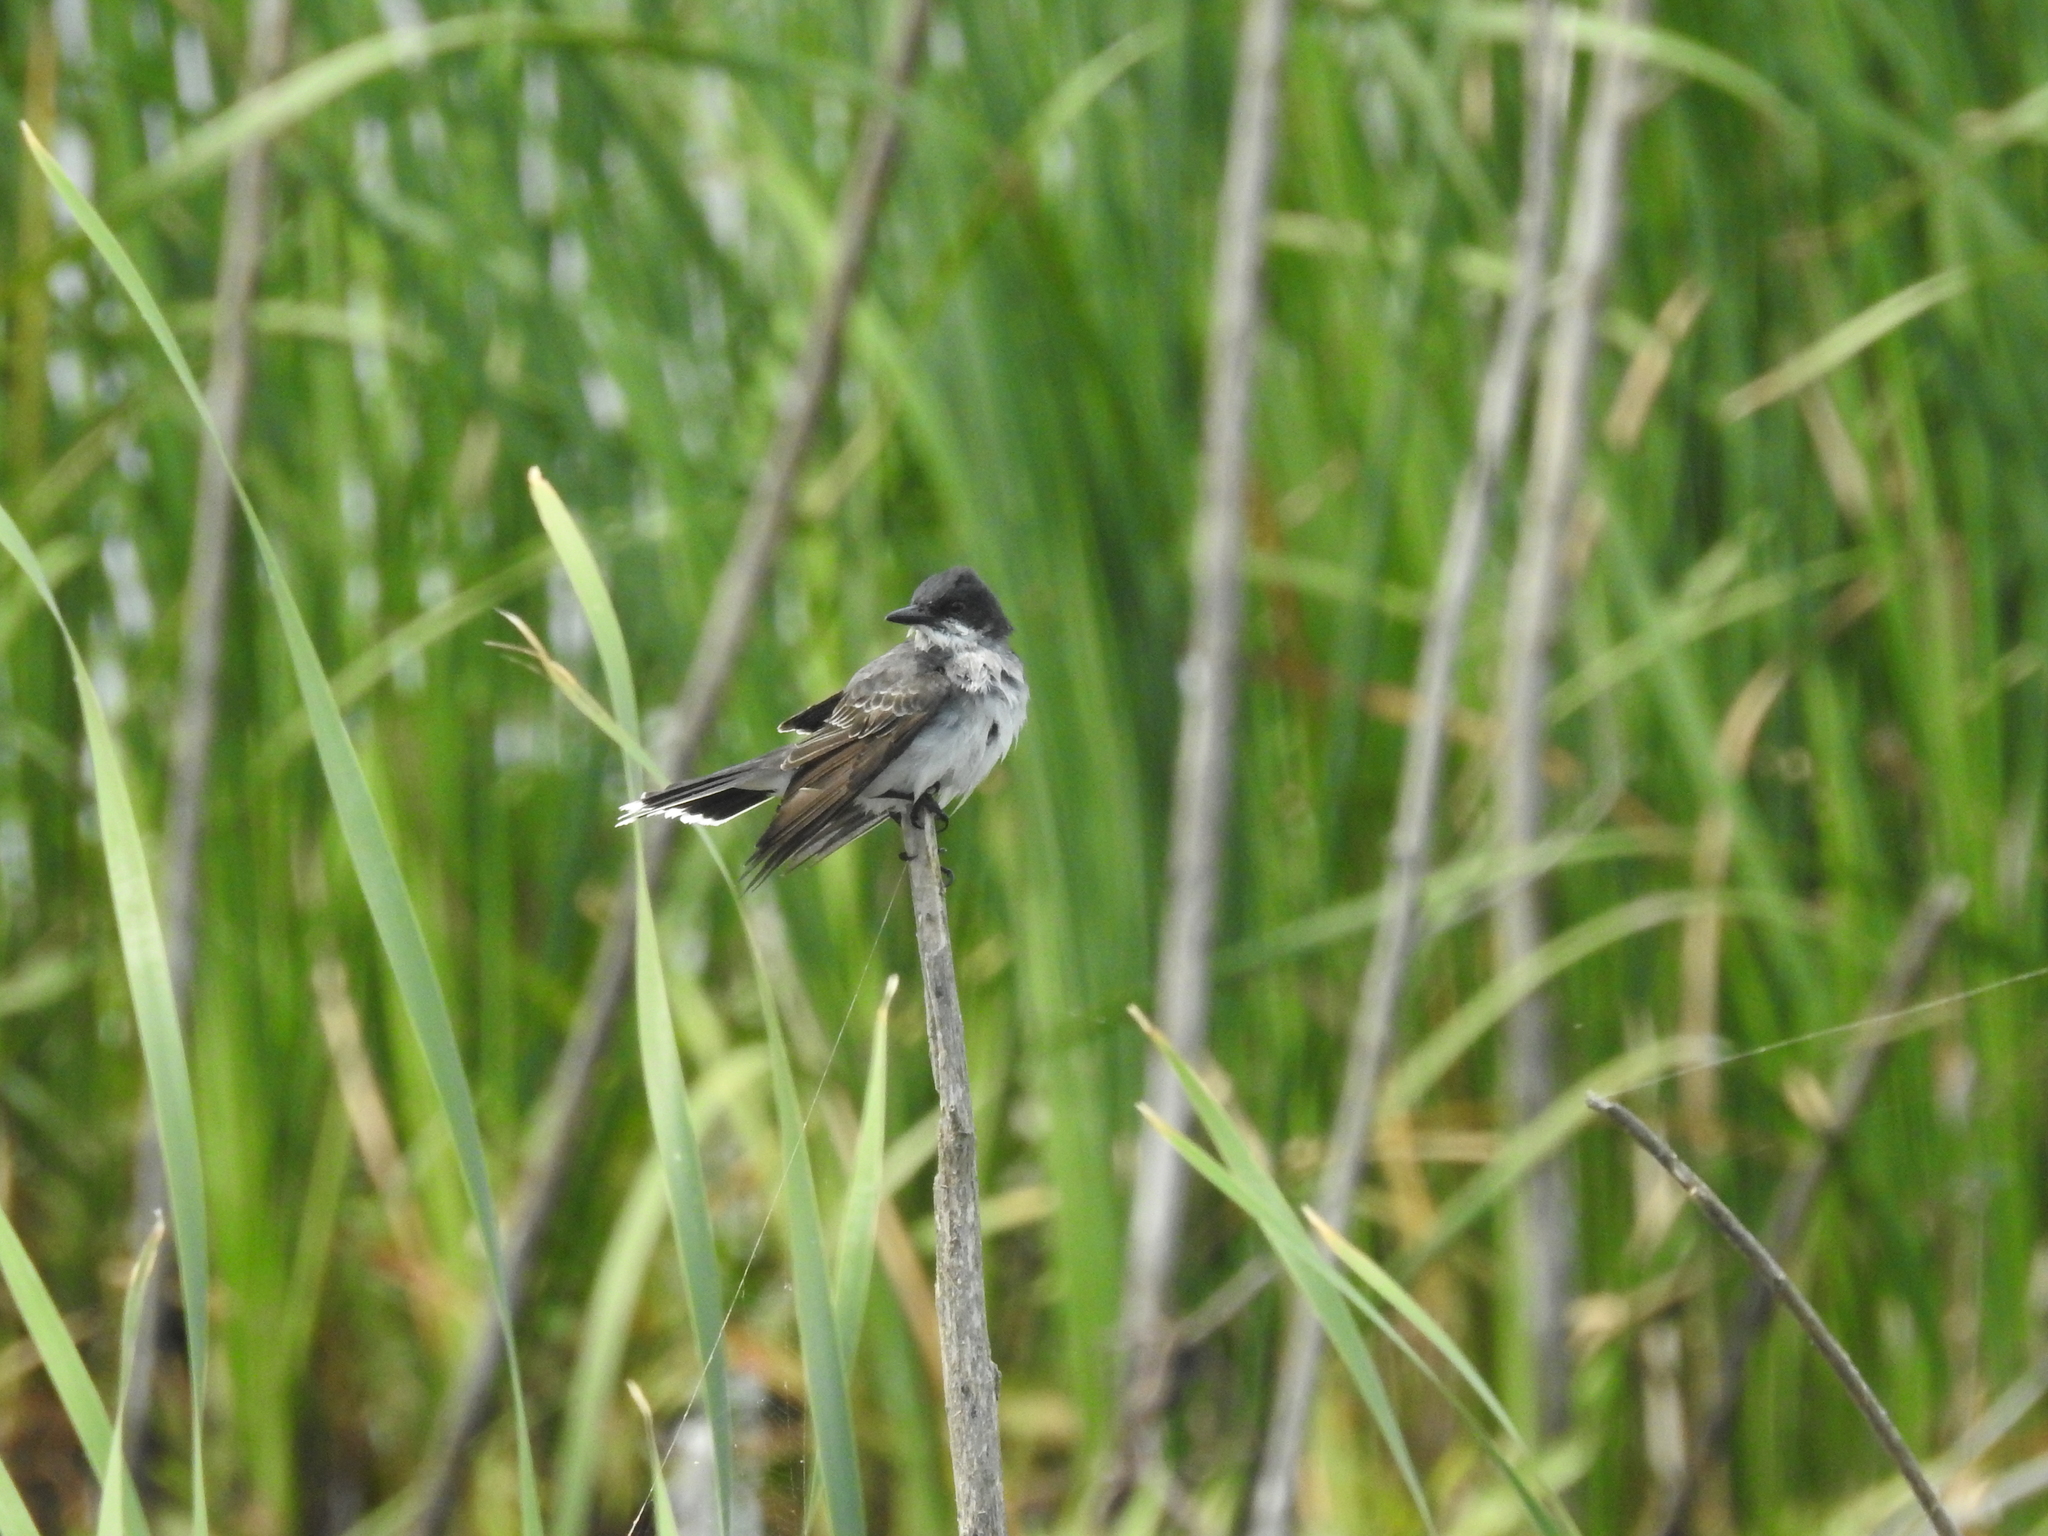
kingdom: Animalia
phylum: Chordata
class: Aves
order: Passeriformes
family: Tyrannidae
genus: Tyrannus
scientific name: Tyrannus tyrannus
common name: Eastern kingbird
